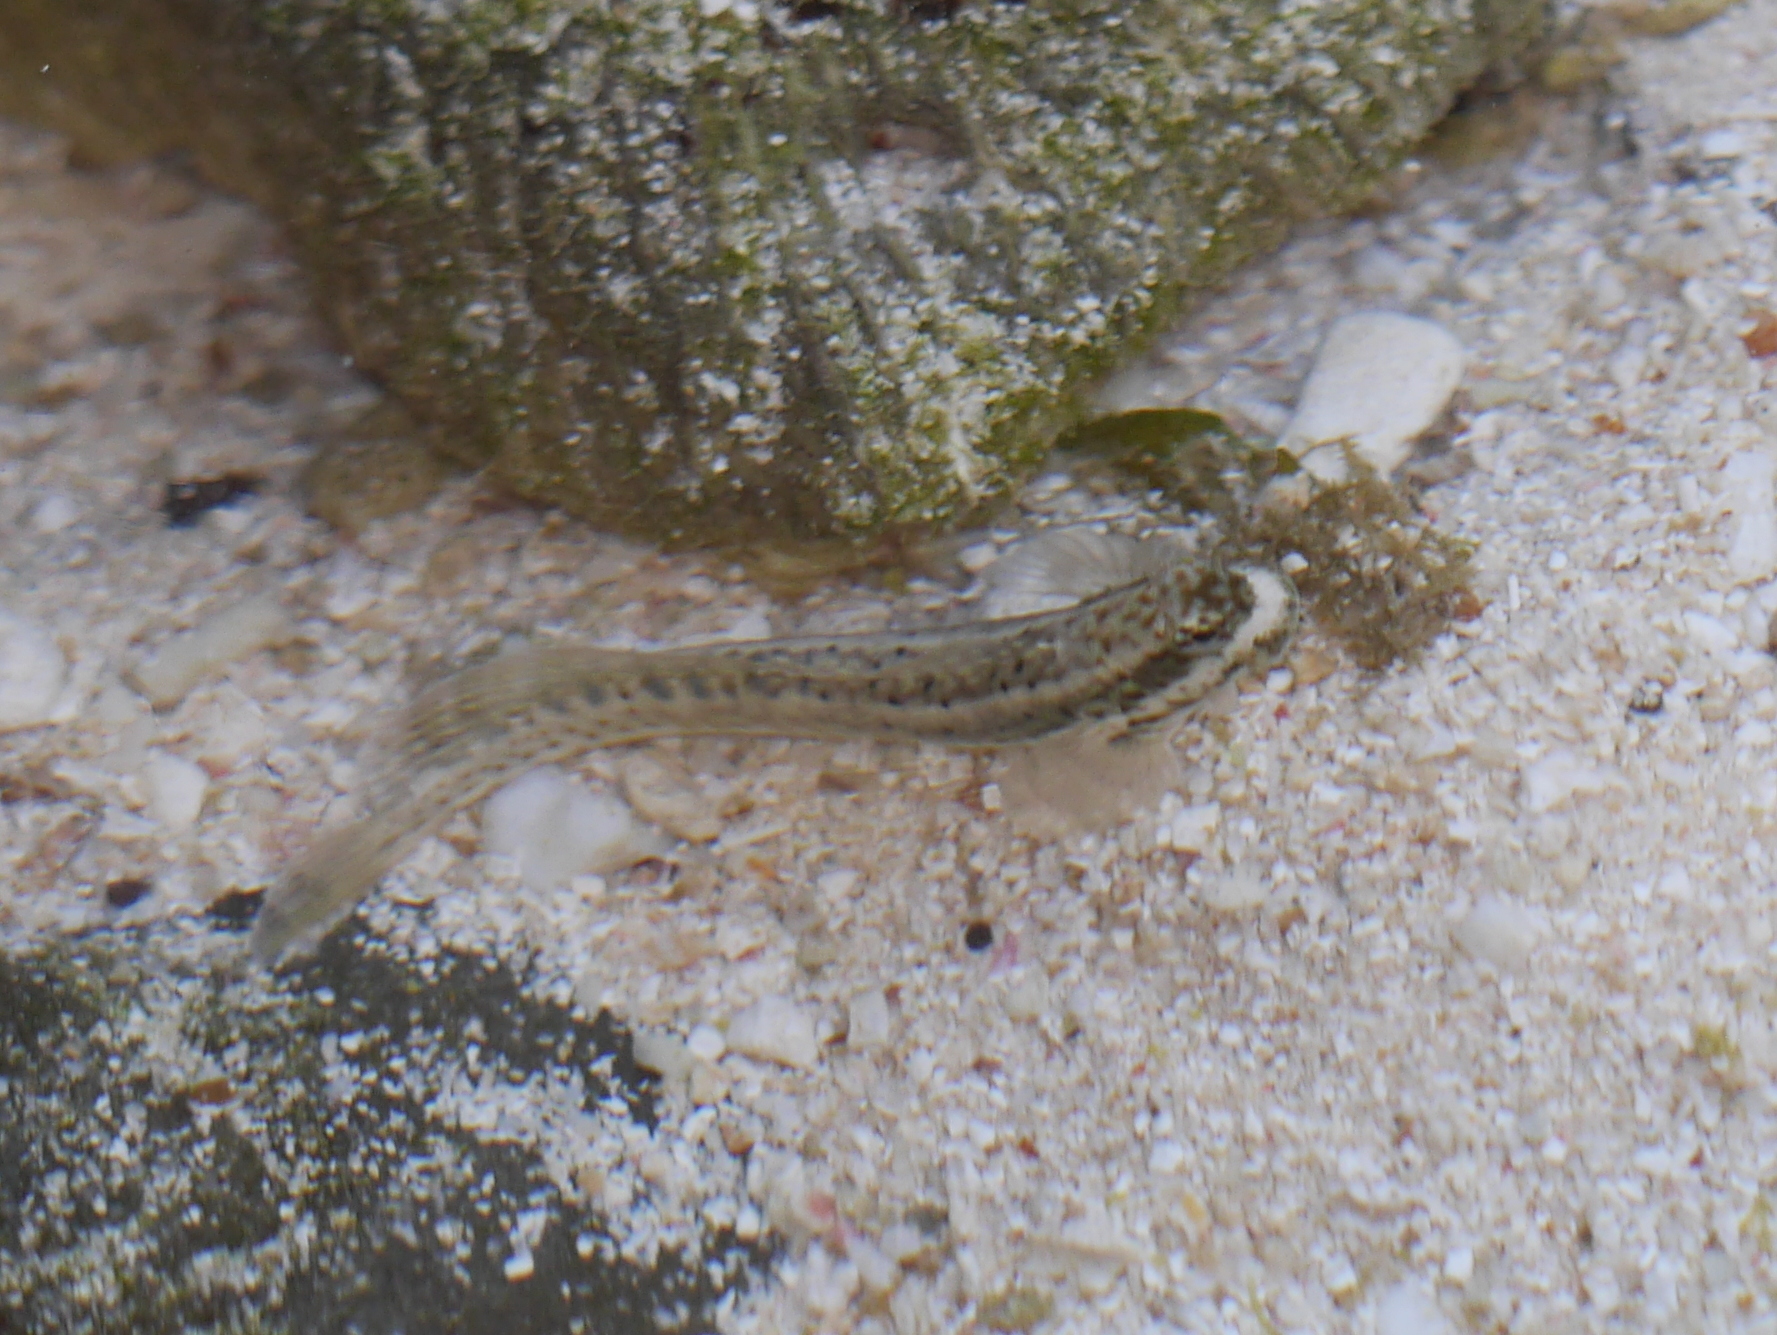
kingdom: Animalia
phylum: Chordata
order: Perciformes
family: Blenniidae
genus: Istiblennius
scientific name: Istiblennius dussumieri
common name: Dussumier's rockskipper
